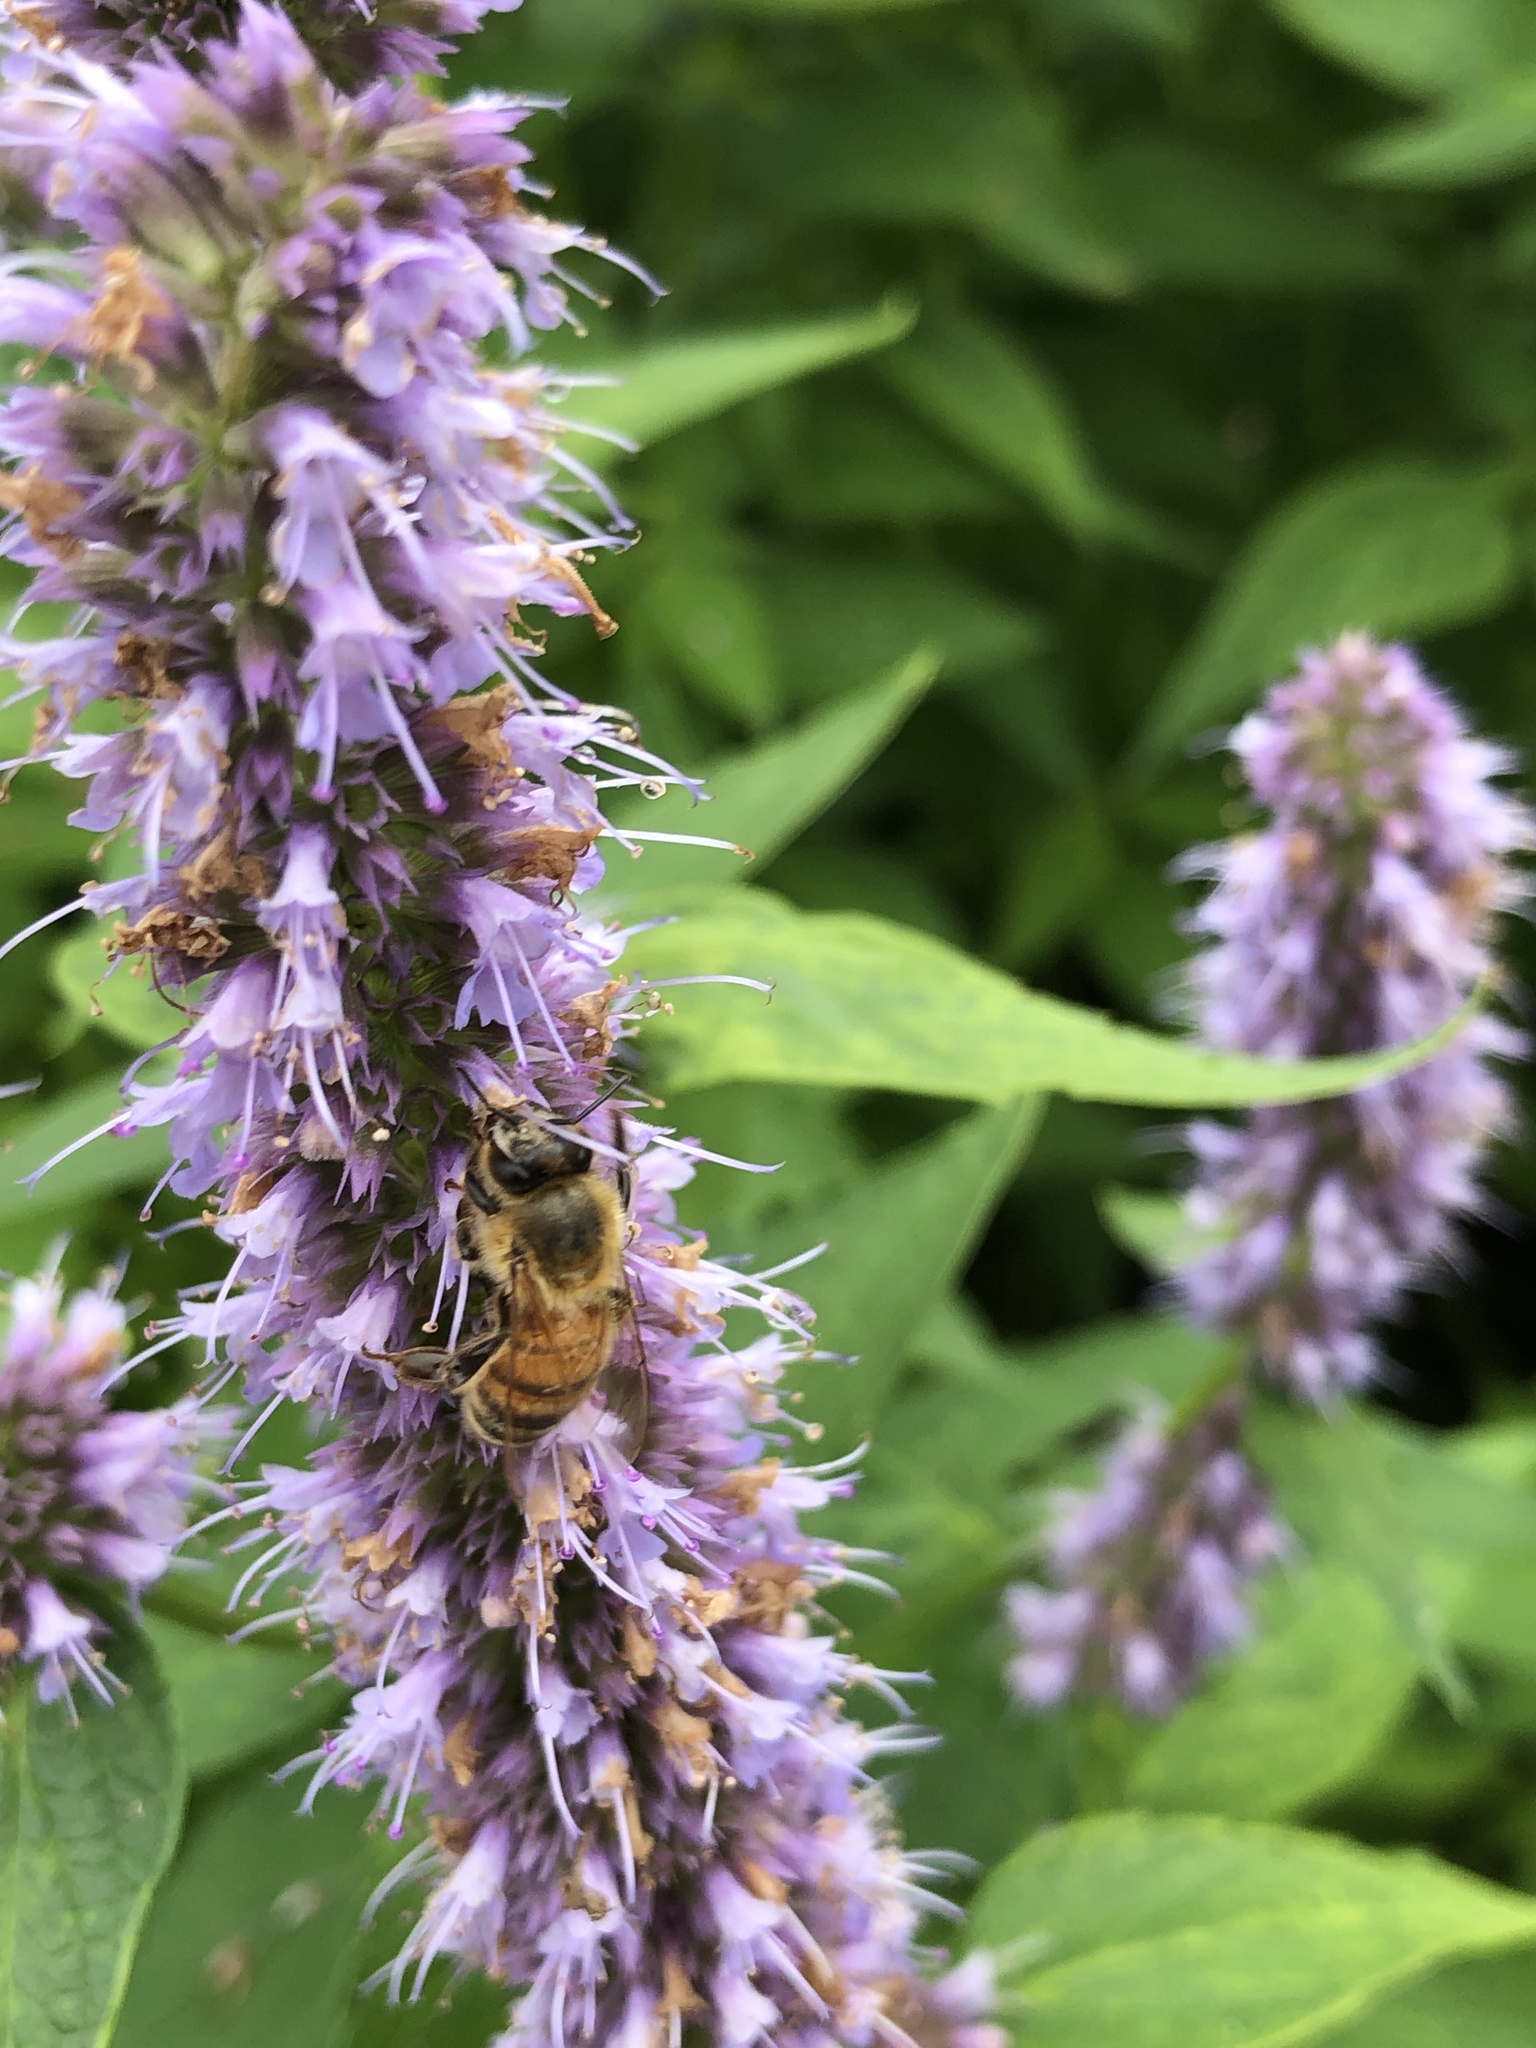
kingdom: Animalia
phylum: Arthropoda
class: Insecta
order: Hymenoptera
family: Apidae
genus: Apis
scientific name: Apis mellifera
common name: Honey bee
